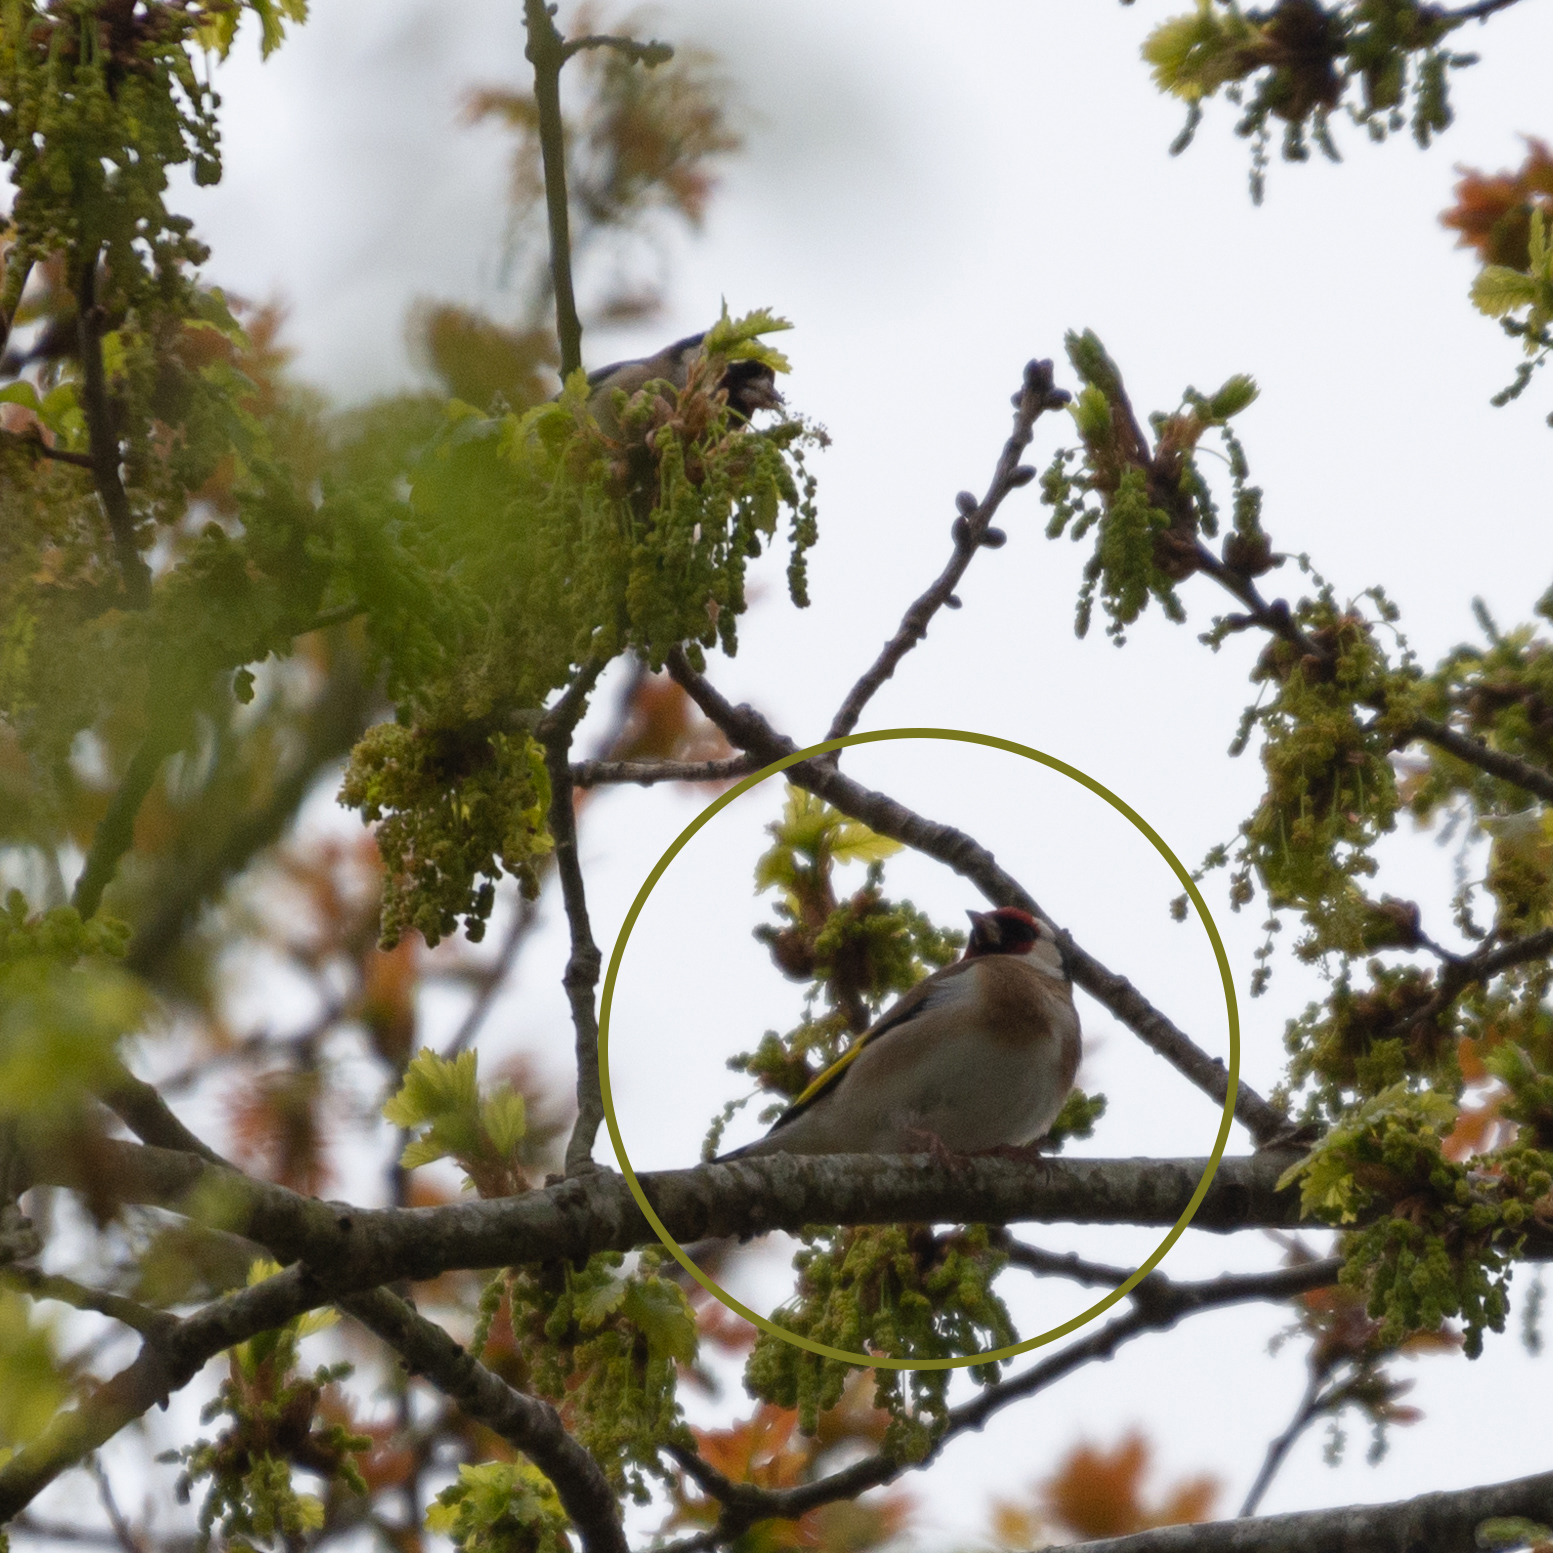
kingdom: Animalia
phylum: Chordata
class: Aves
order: Passeriformes
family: Fringillidae
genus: Carduelis
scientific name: Carduelis carduelis
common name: European goldfinch
